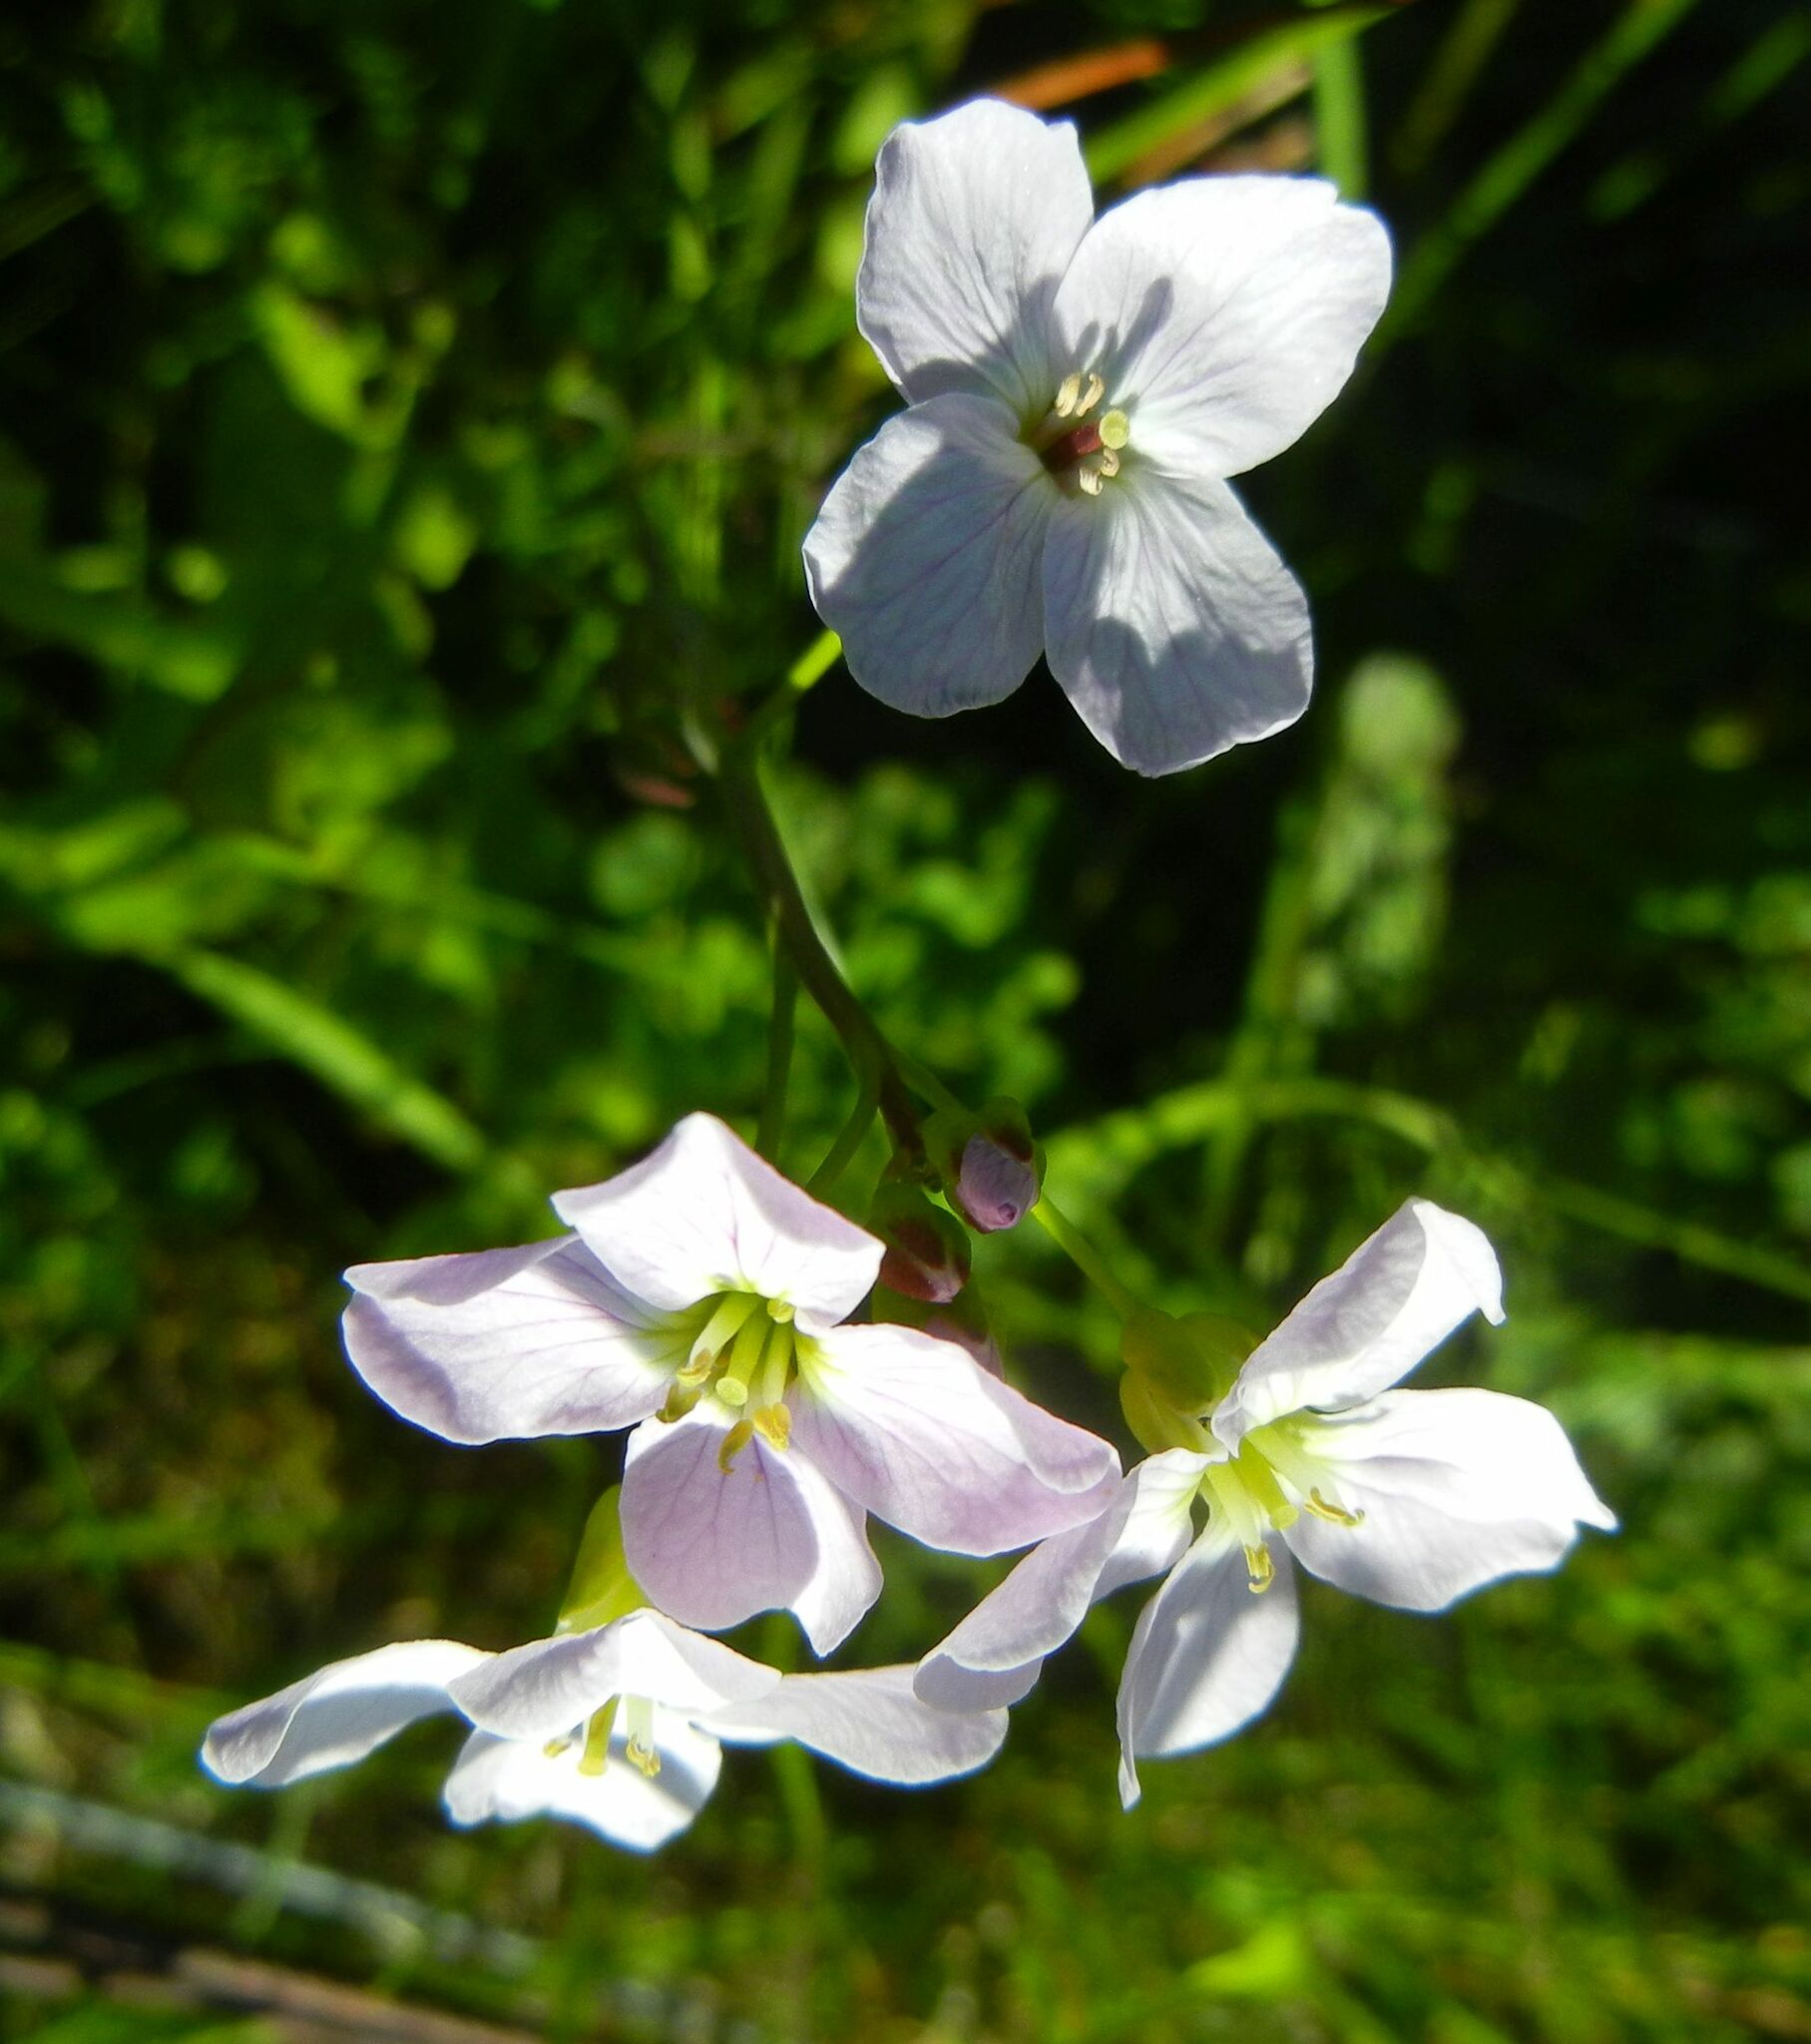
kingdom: Plantae
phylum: Tracheophyta
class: Magnoliopsida
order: Brassicales
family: Brassicaceae
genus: Cardamine
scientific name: Cardamine pratensis
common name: Cuckoo flower
